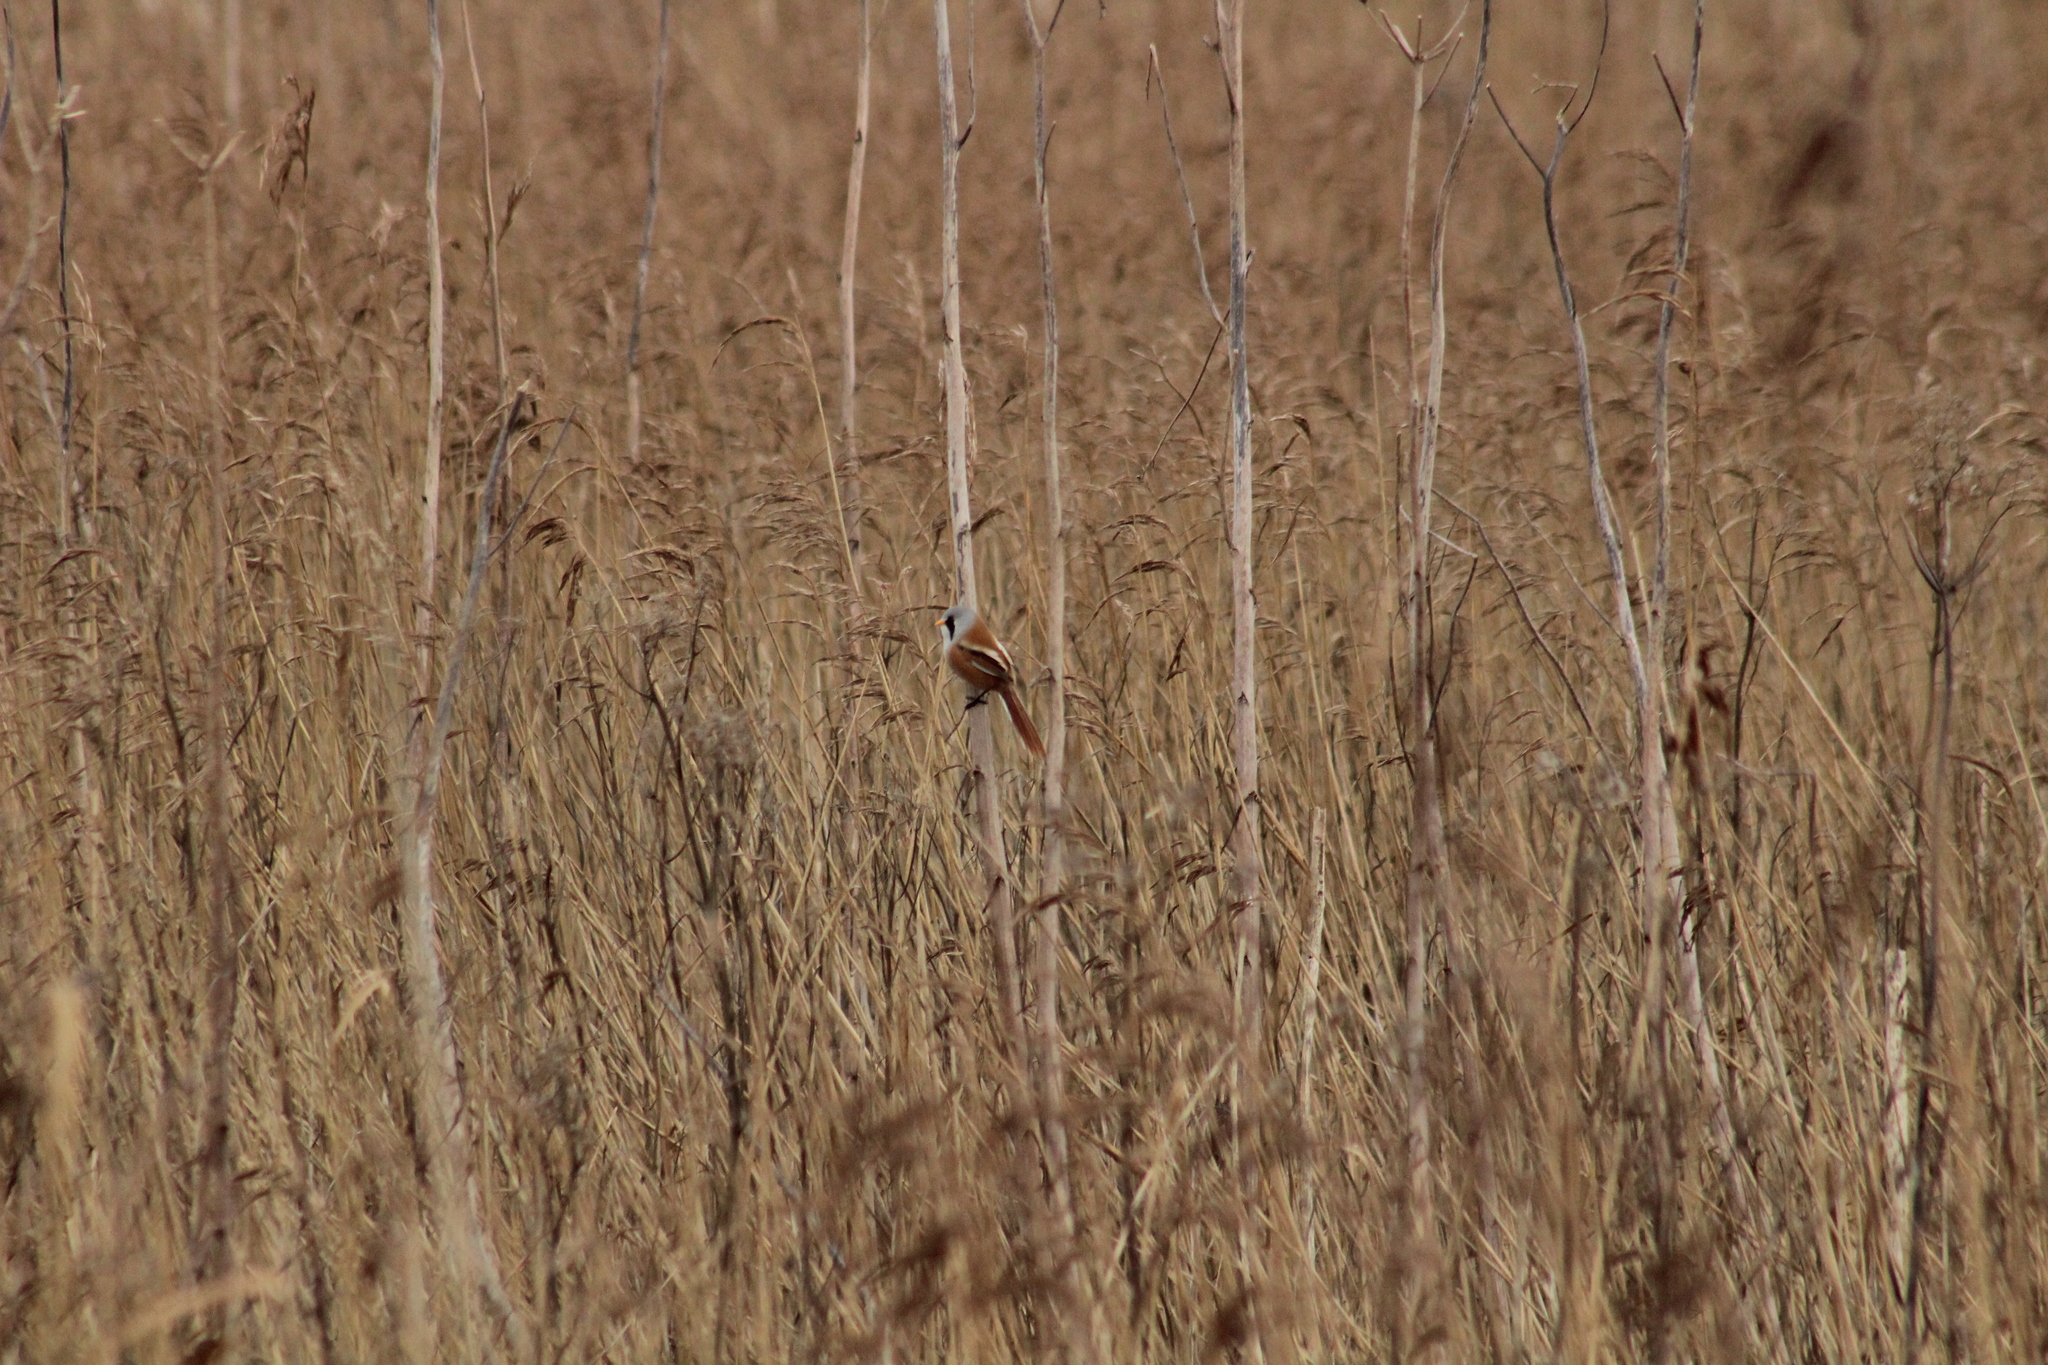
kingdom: Animalia
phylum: Chordata
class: Aves
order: Passeriformes
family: Panuridae
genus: Panurus
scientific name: Panurus biarmicus
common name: Bearded reedling
